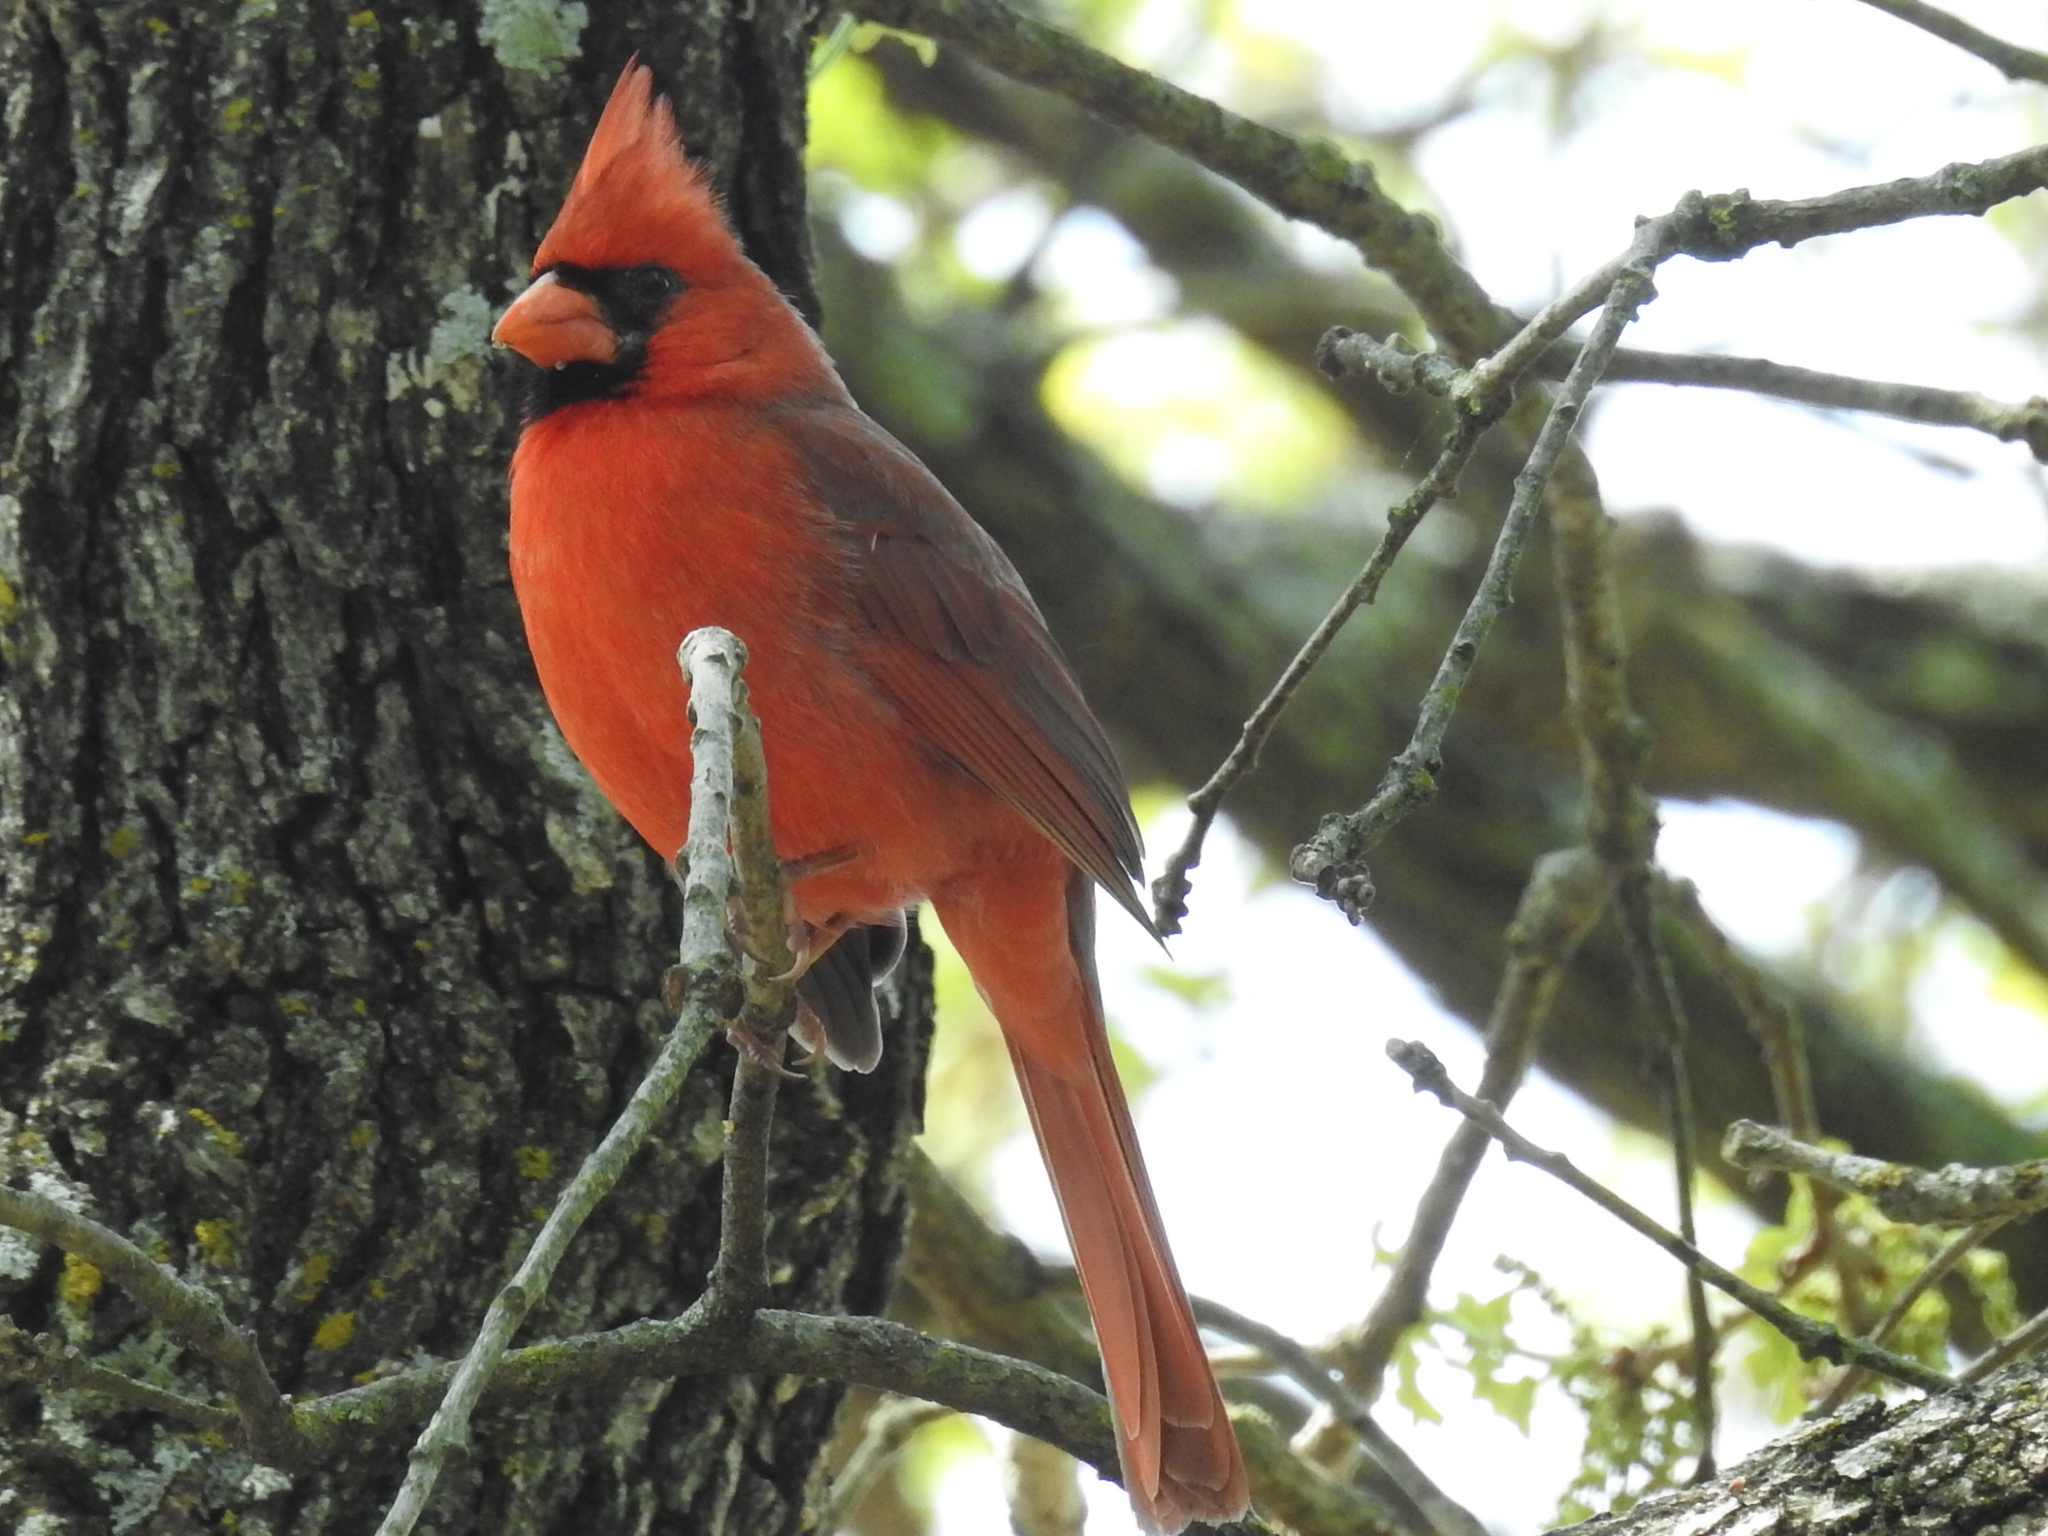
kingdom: Animalia
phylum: Chordata
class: Aves
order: Passeriformes
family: Cardinalidae
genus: Cardinalis
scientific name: Cardinalis cardinalis
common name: Northern cardinal
